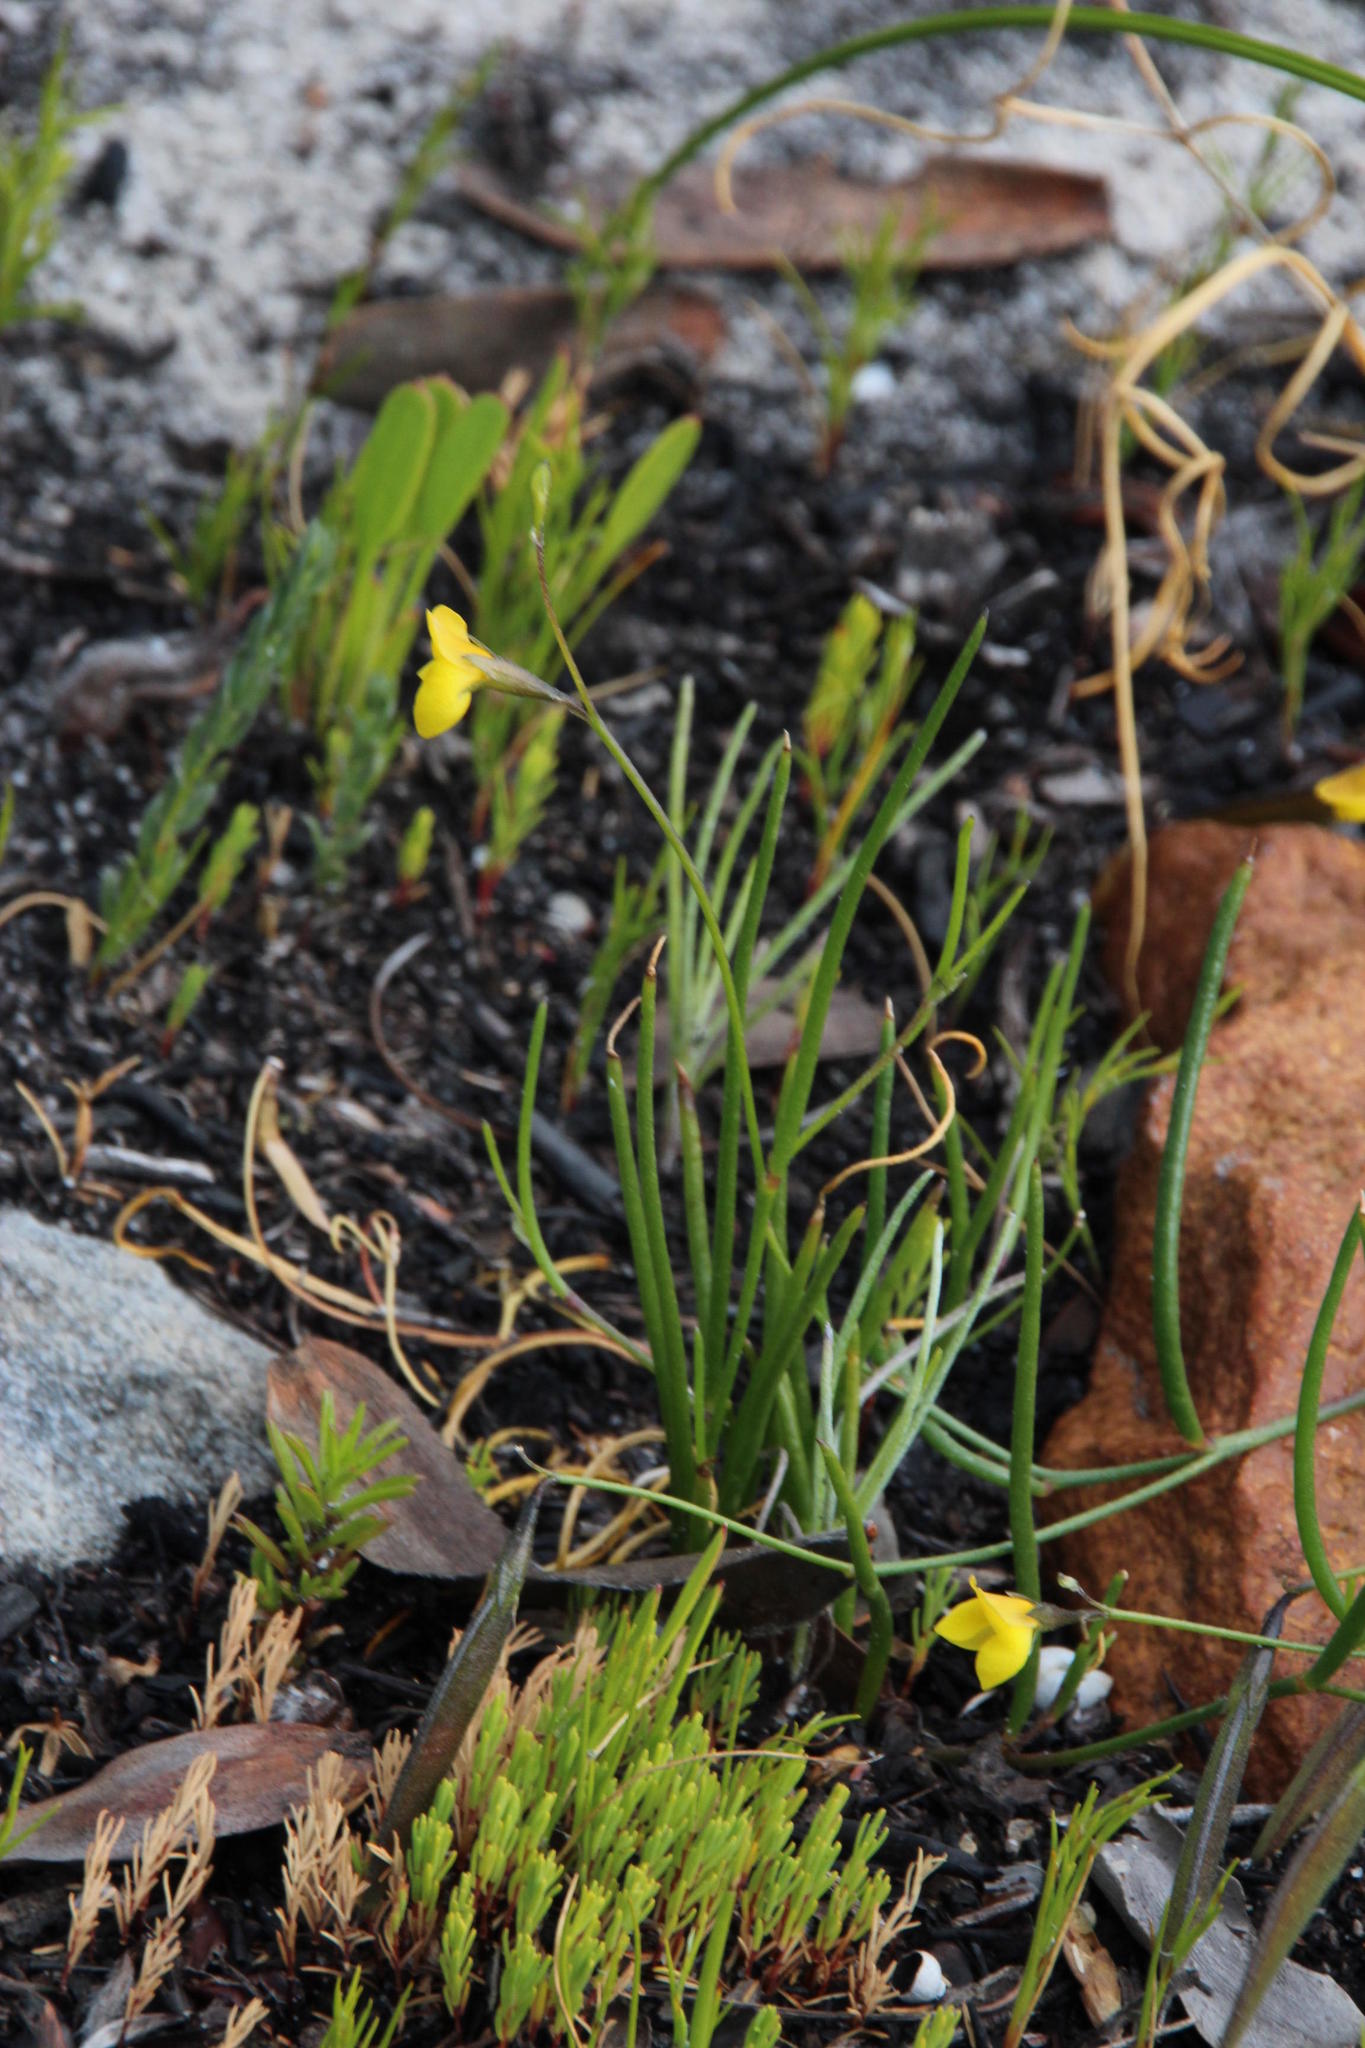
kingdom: Plantae
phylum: Tracheophyta
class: Magnoliopsida
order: Fabales
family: Fabaceae
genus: Lebeckia
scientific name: Lebeckia wrightii
